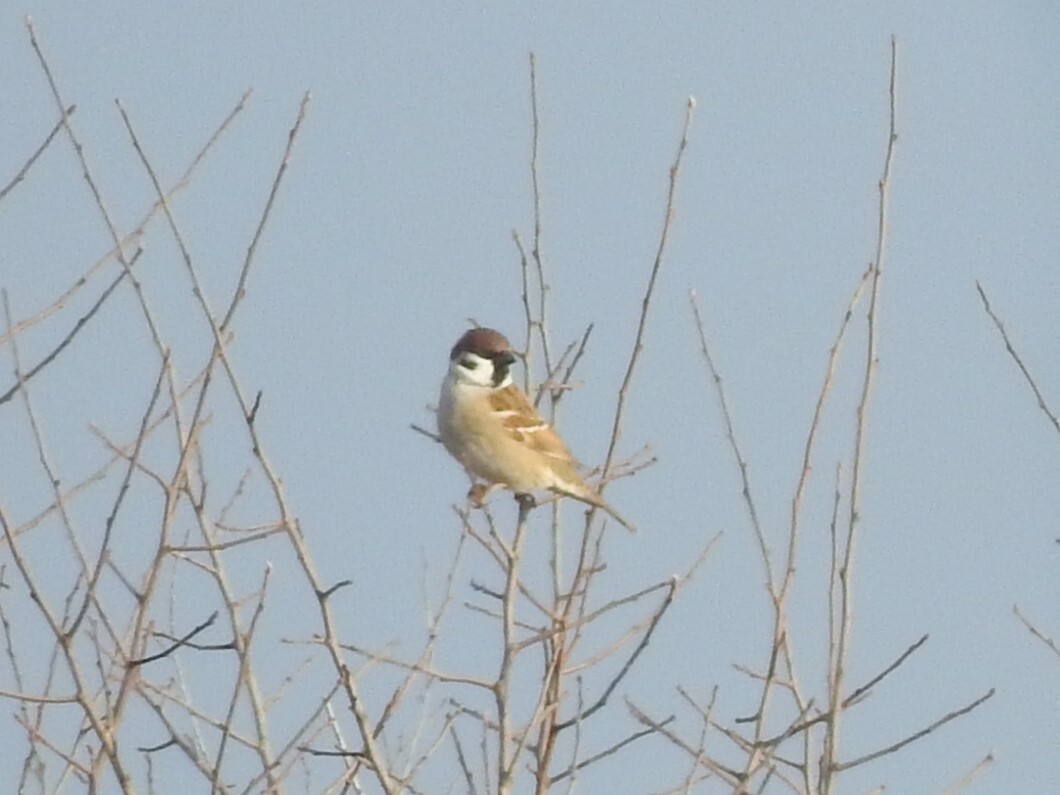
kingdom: Animalia
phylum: Chordata
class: Aves
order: Passeriformes
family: Passeridae
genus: Passer
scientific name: Passer montanus
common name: Eurasian tree sparrow
